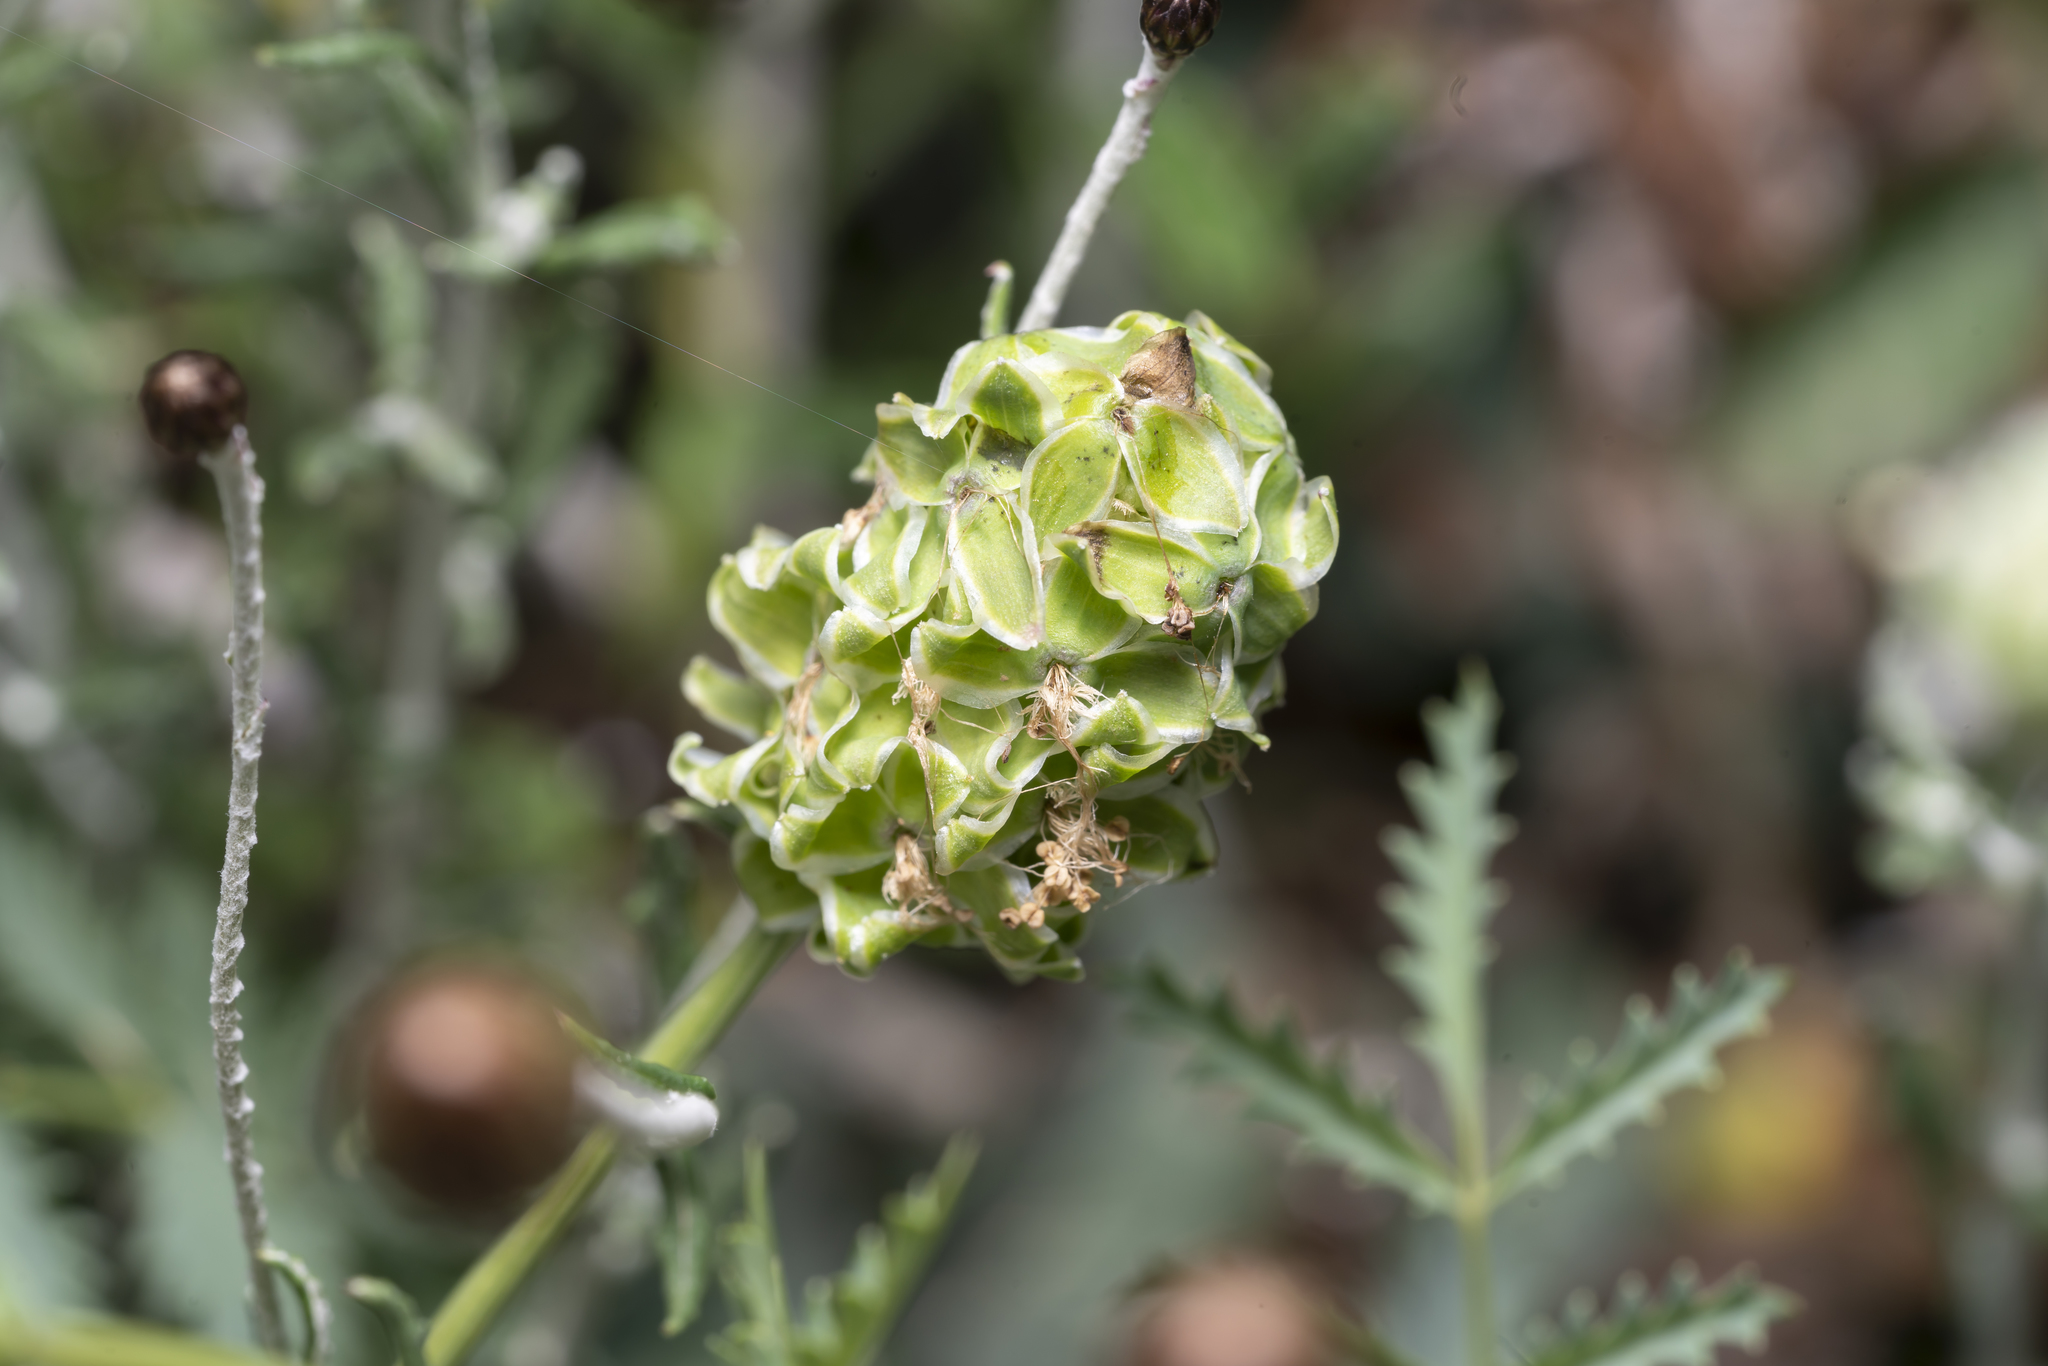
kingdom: Plantae
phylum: Tracheophyta
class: Magnoliopsida
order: Rosales
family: Rosaceae
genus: Poterium
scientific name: Poterium
